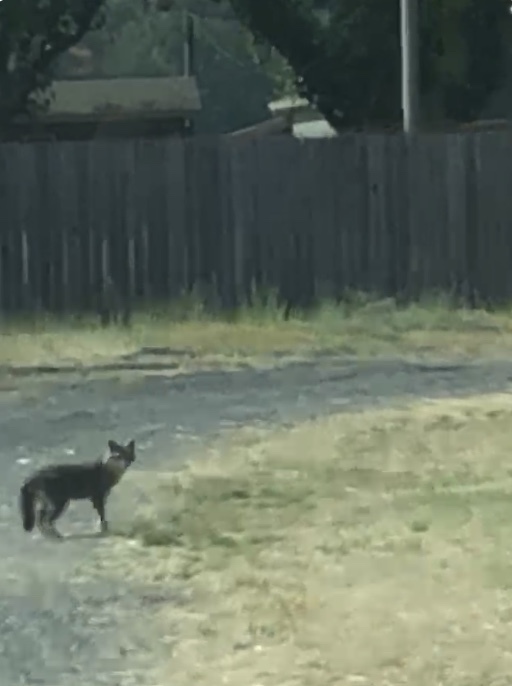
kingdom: Animalia
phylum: Chordata
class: Mammalia
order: Carnivora
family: Canidae
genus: Urocyon
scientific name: Urocyon cinereoargenteus
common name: Gray fox
